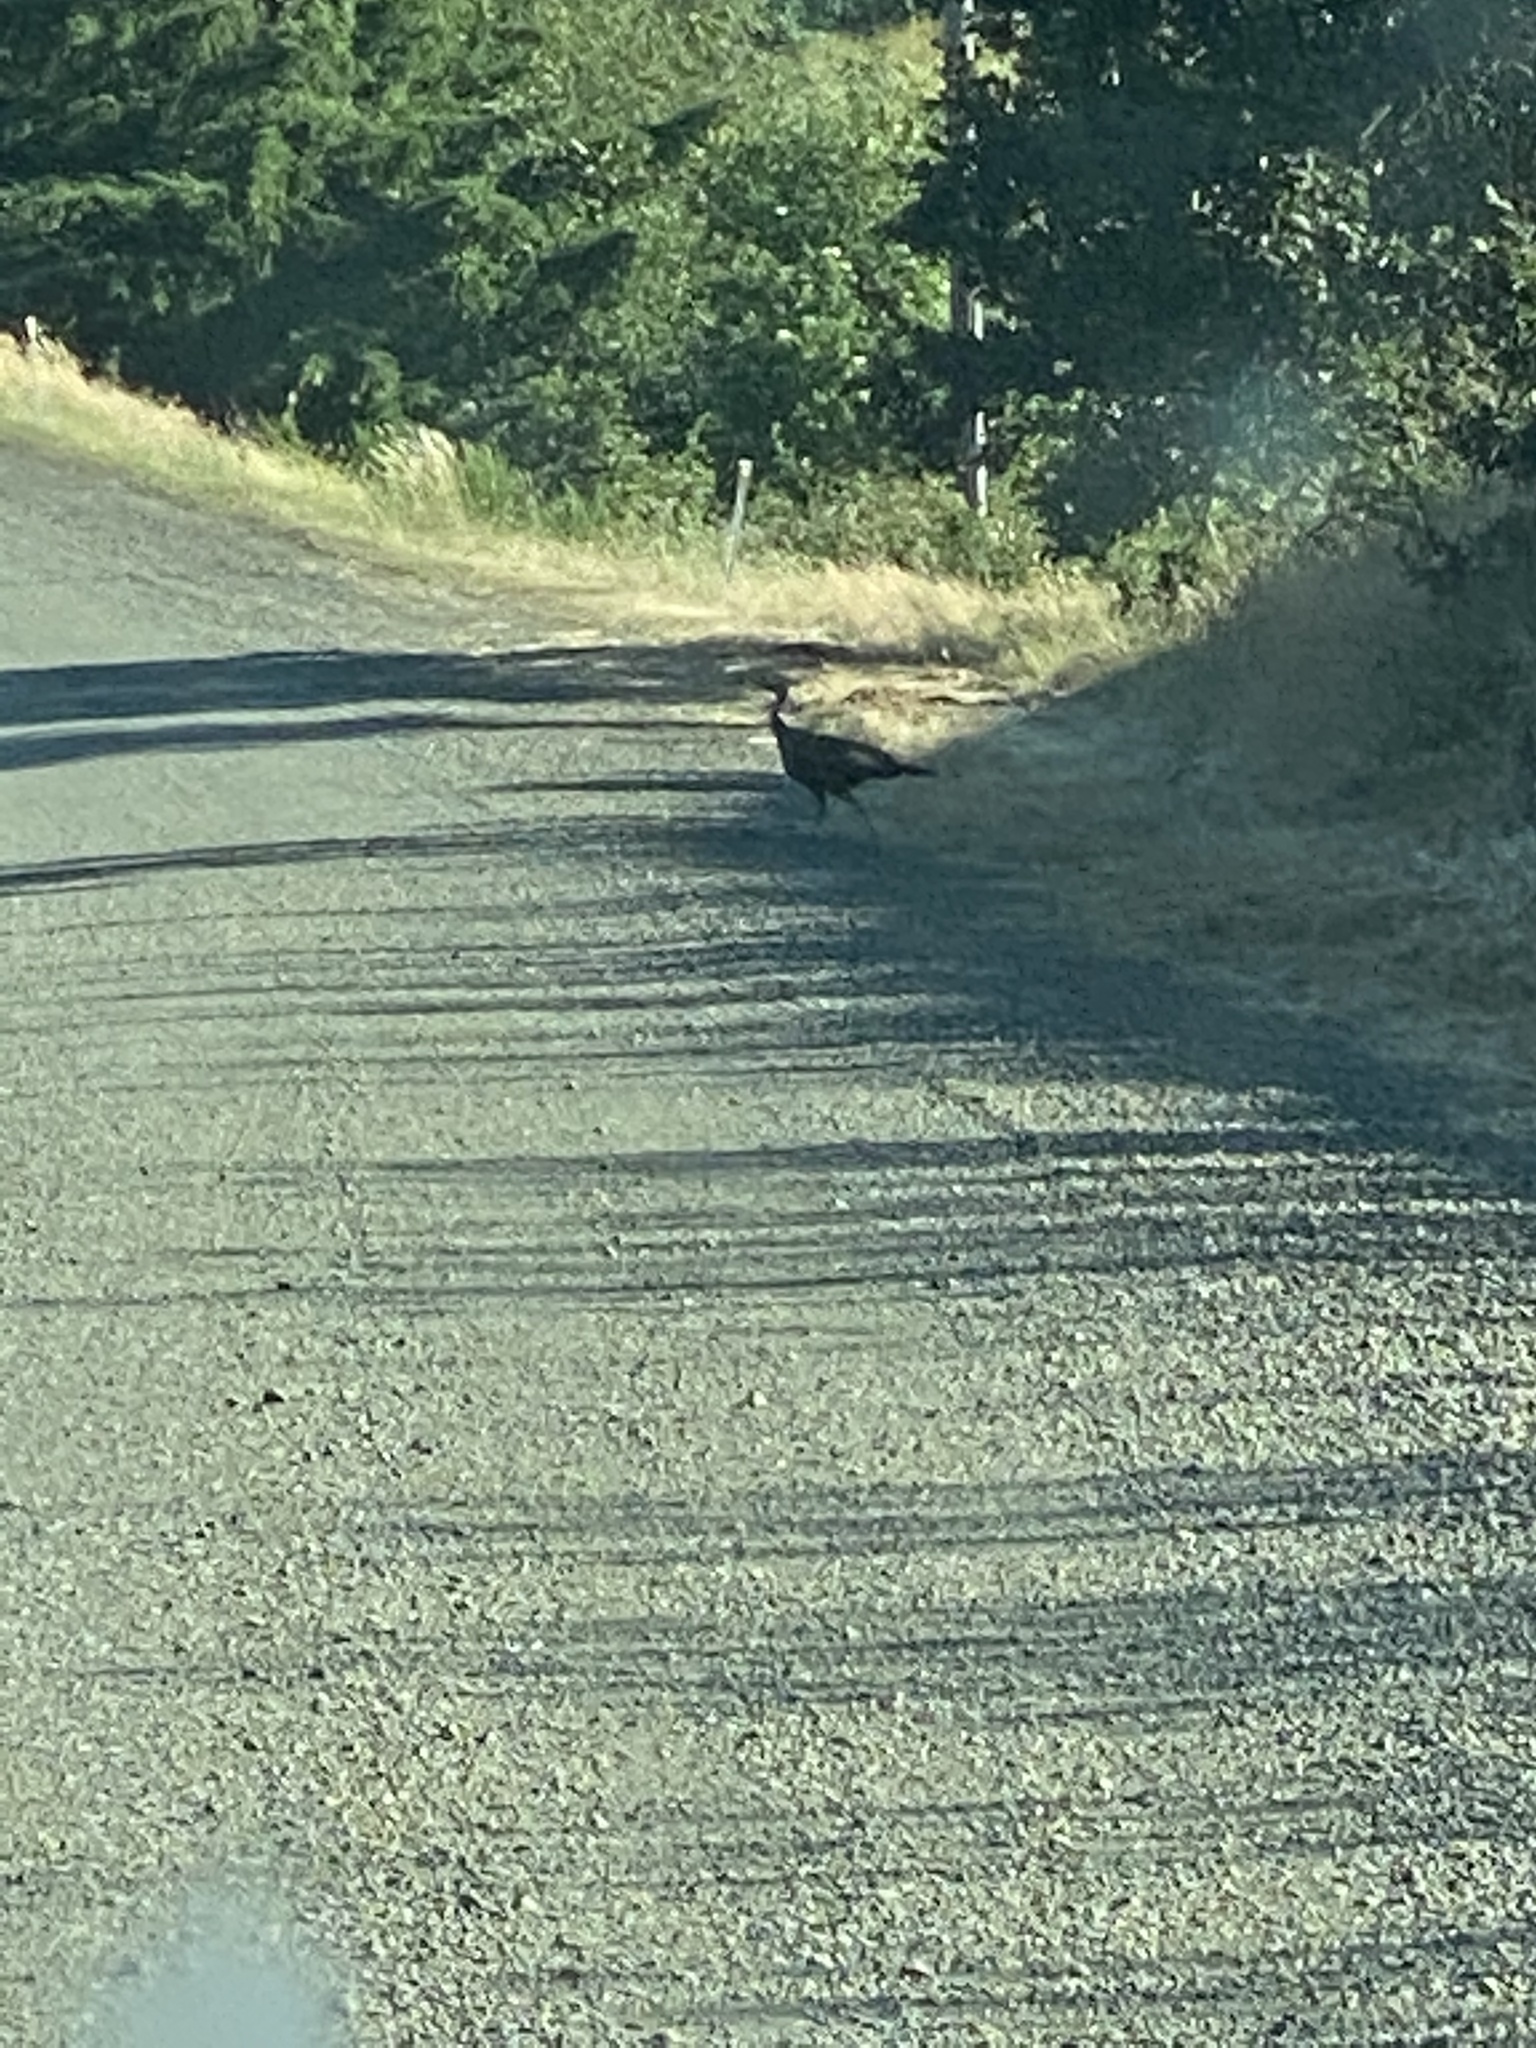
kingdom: Animalia
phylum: Chordata
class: Aves
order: Galliformes
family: Phasianidae
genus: Meleagris
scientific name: Meleagris gallopavo
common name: Wild turkey
